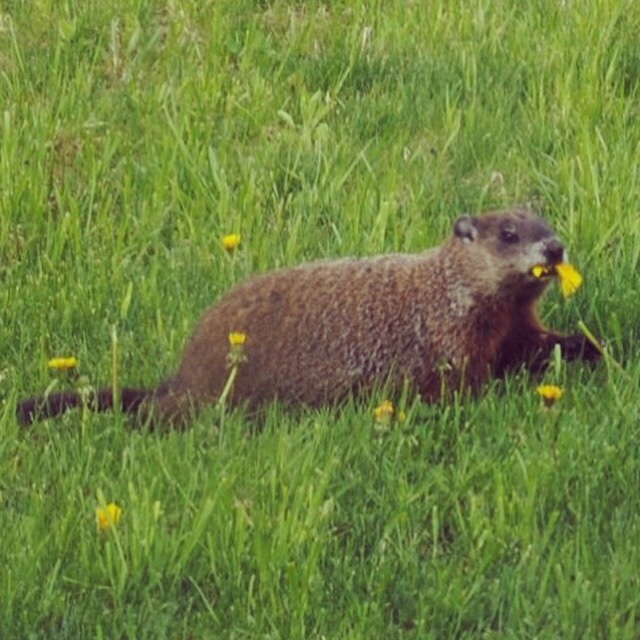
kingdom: Animalia
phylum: Chordata
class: Mammalia
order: Rodentia
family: Sciuridae
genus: Marmota
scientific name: Marmota monax
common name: Groundhog
